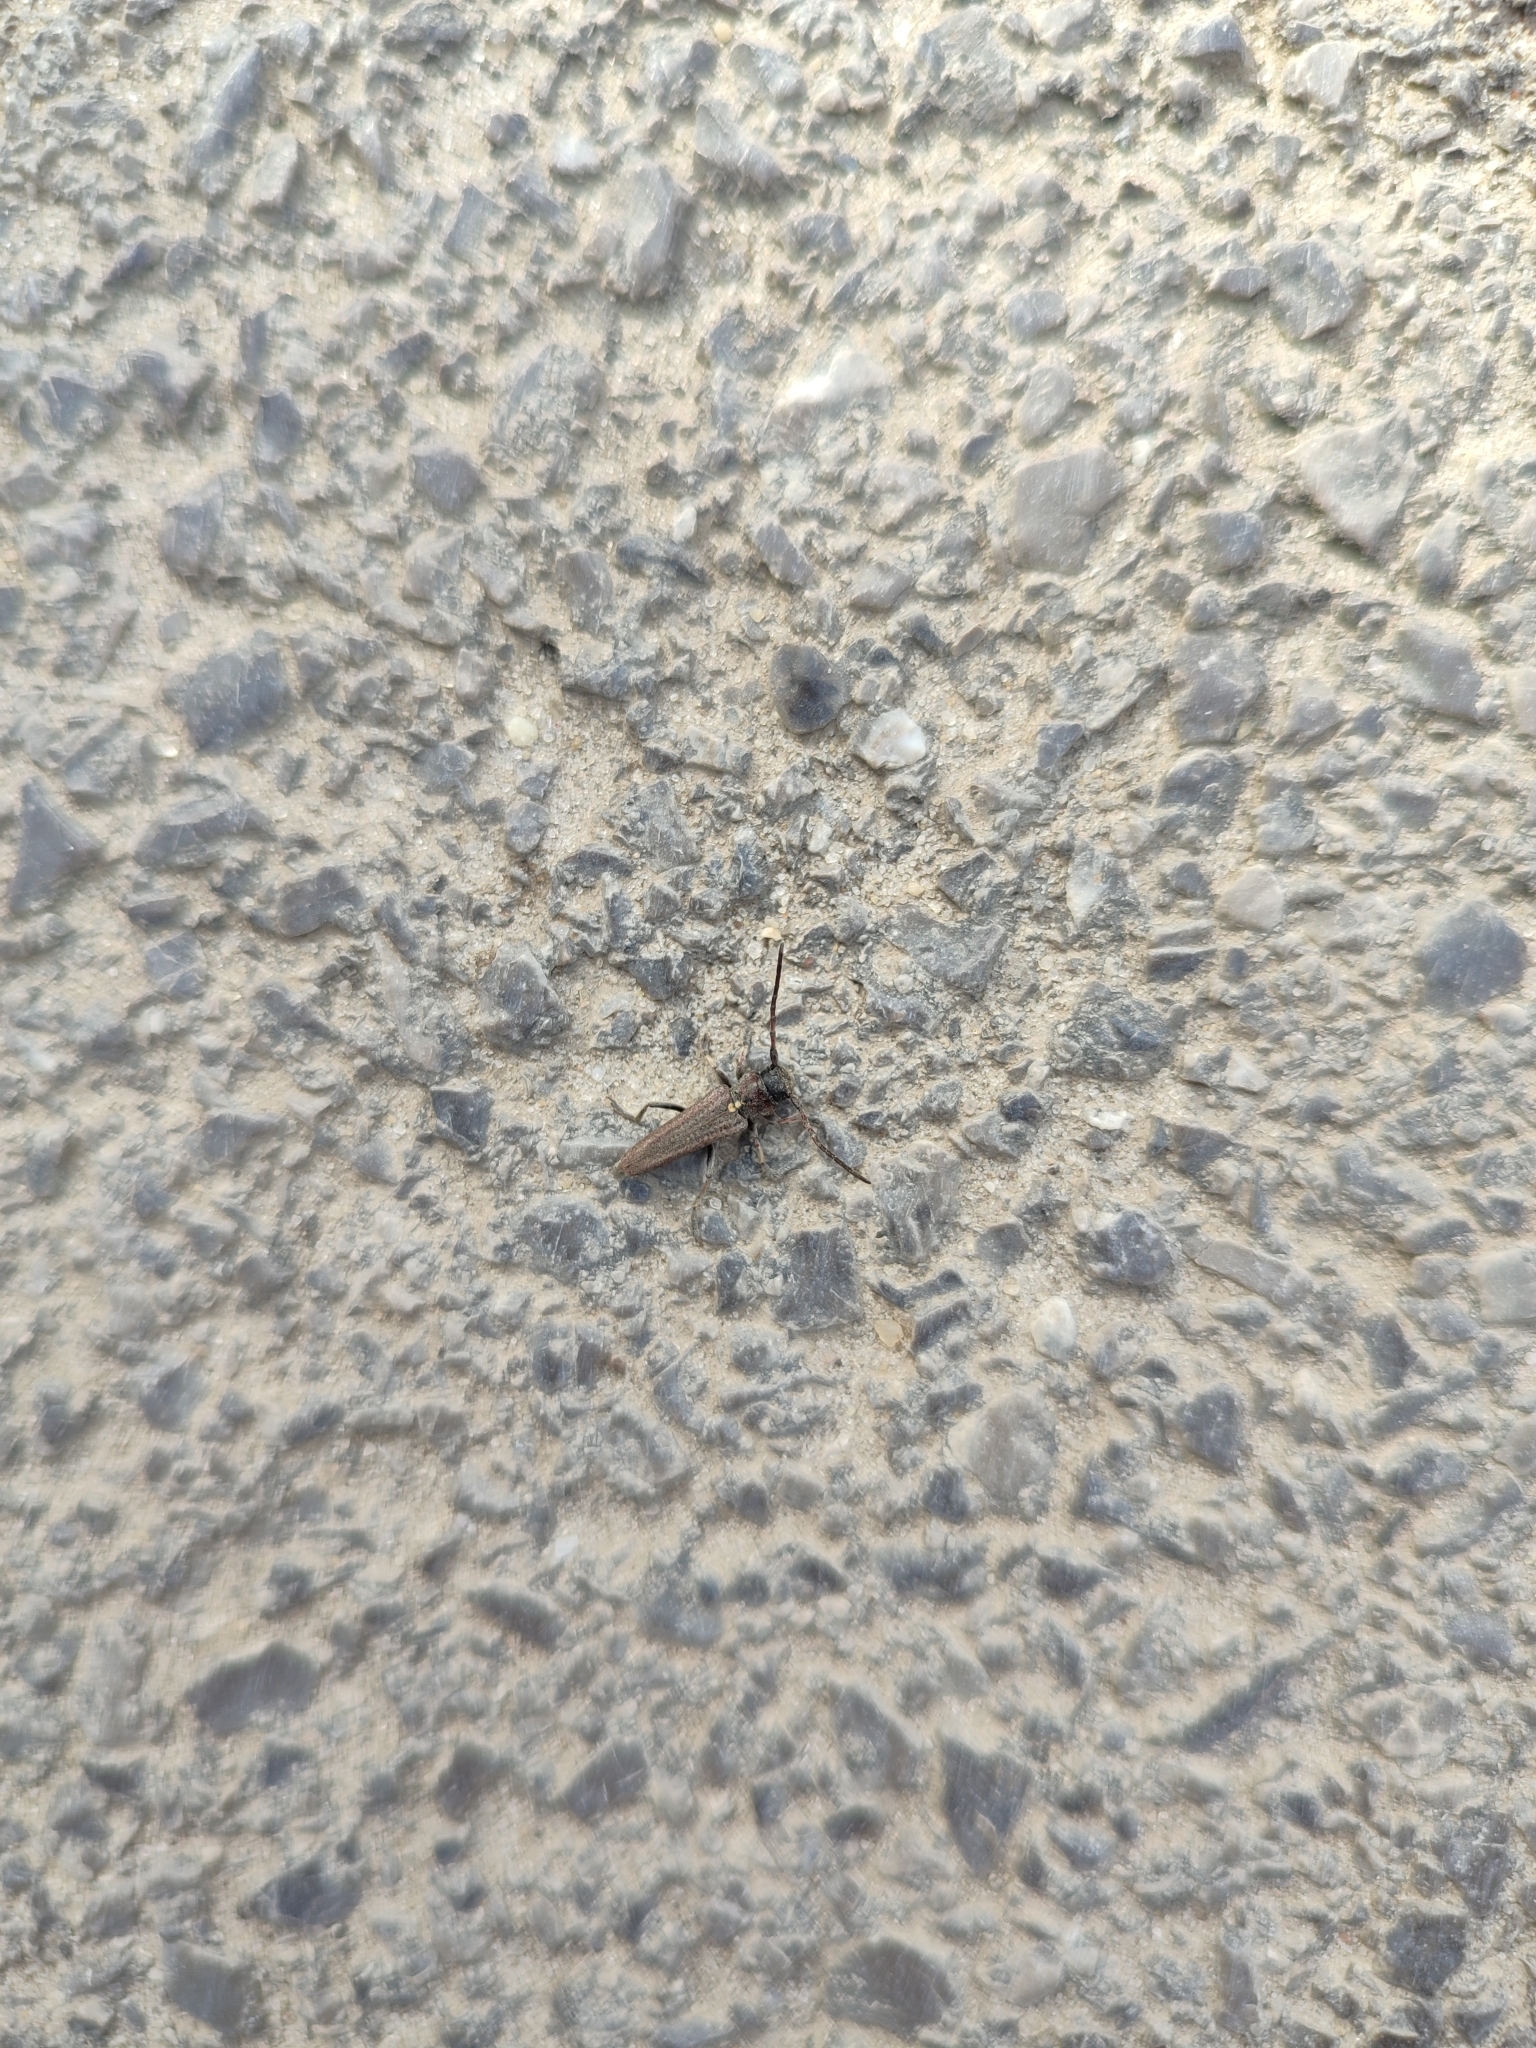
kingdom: Animalia
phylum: Arthropoda
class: Insecta
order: Coleoptera
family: Cerambycidae
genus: Cardoria
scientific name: Cardoria scutellata
